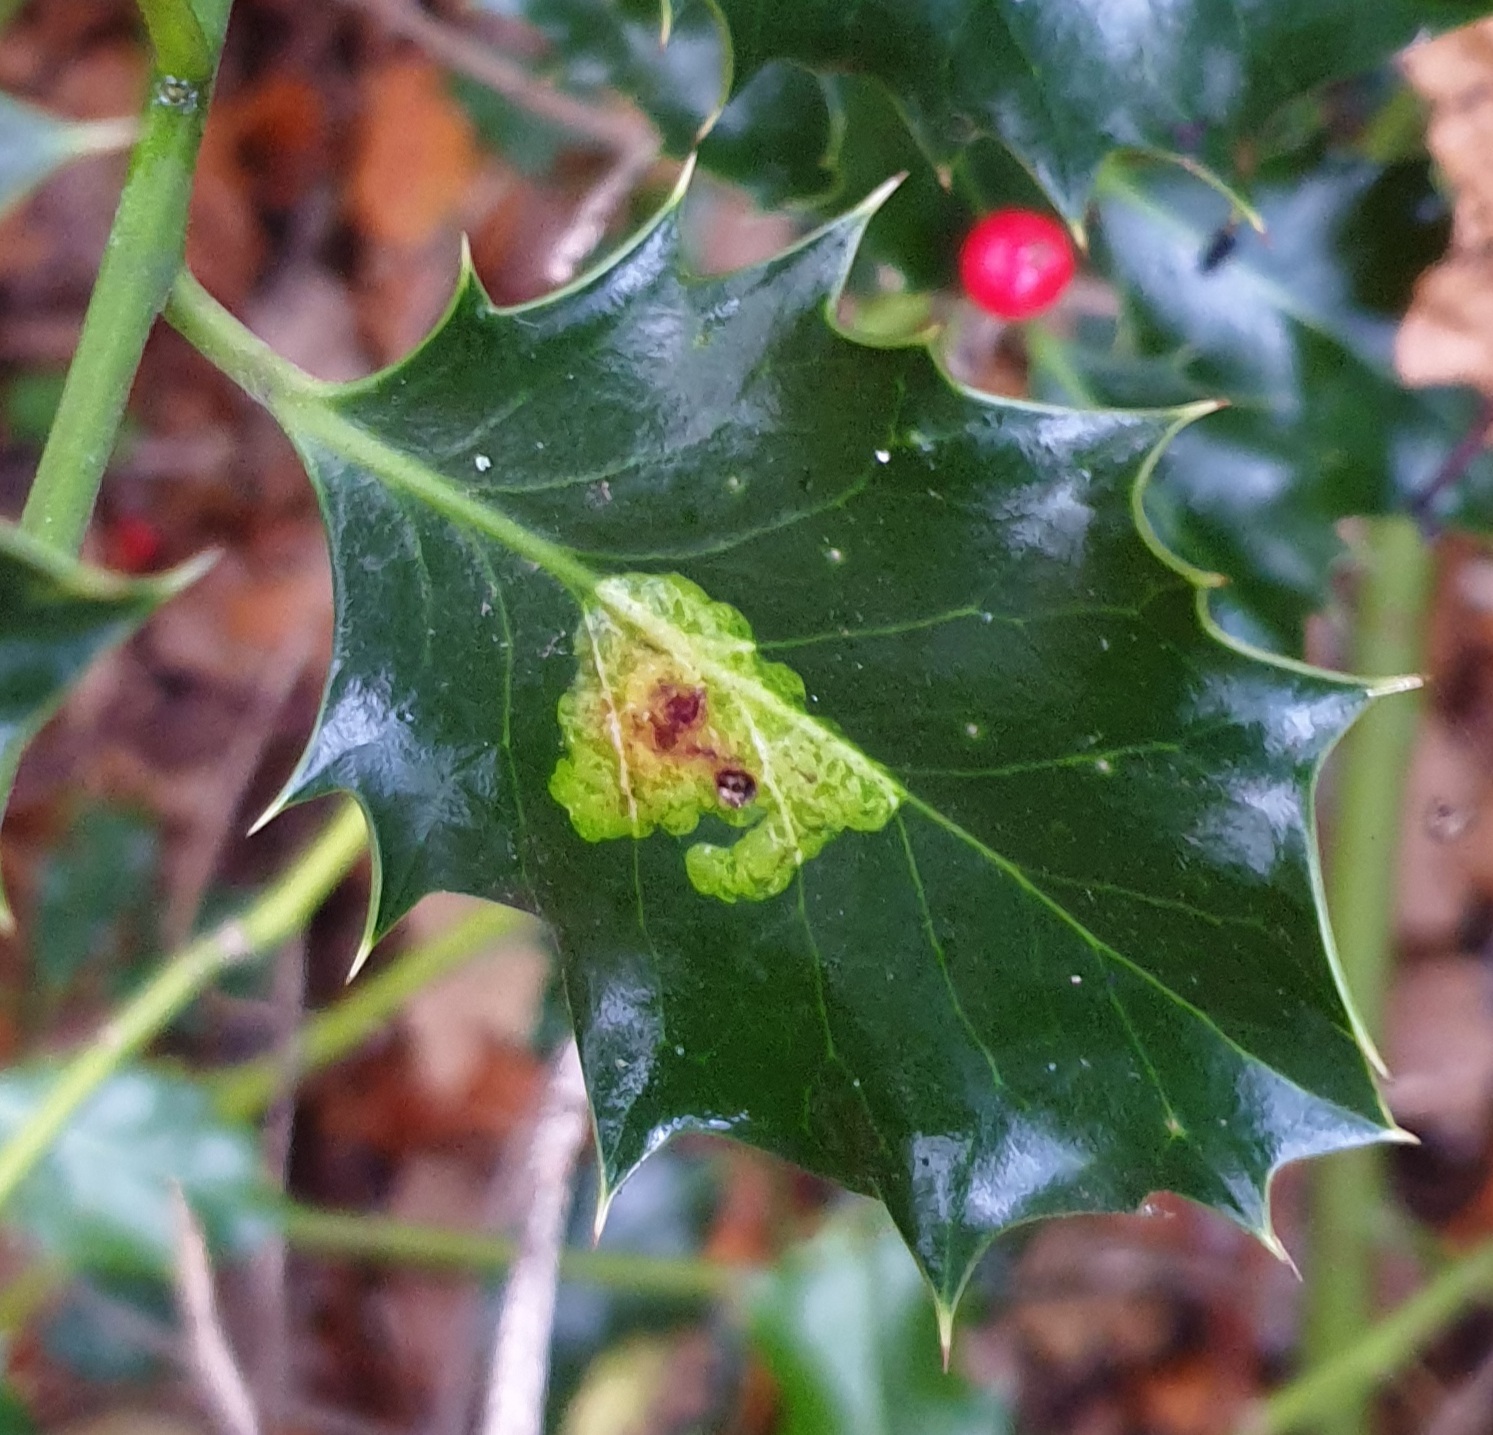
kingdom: Animalia
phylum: Arthropoda
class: Insecta
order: Diptera
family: Agromyzidae
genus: Phytomyza
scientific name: Phytomyza ilicis
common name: Holly leafminer
